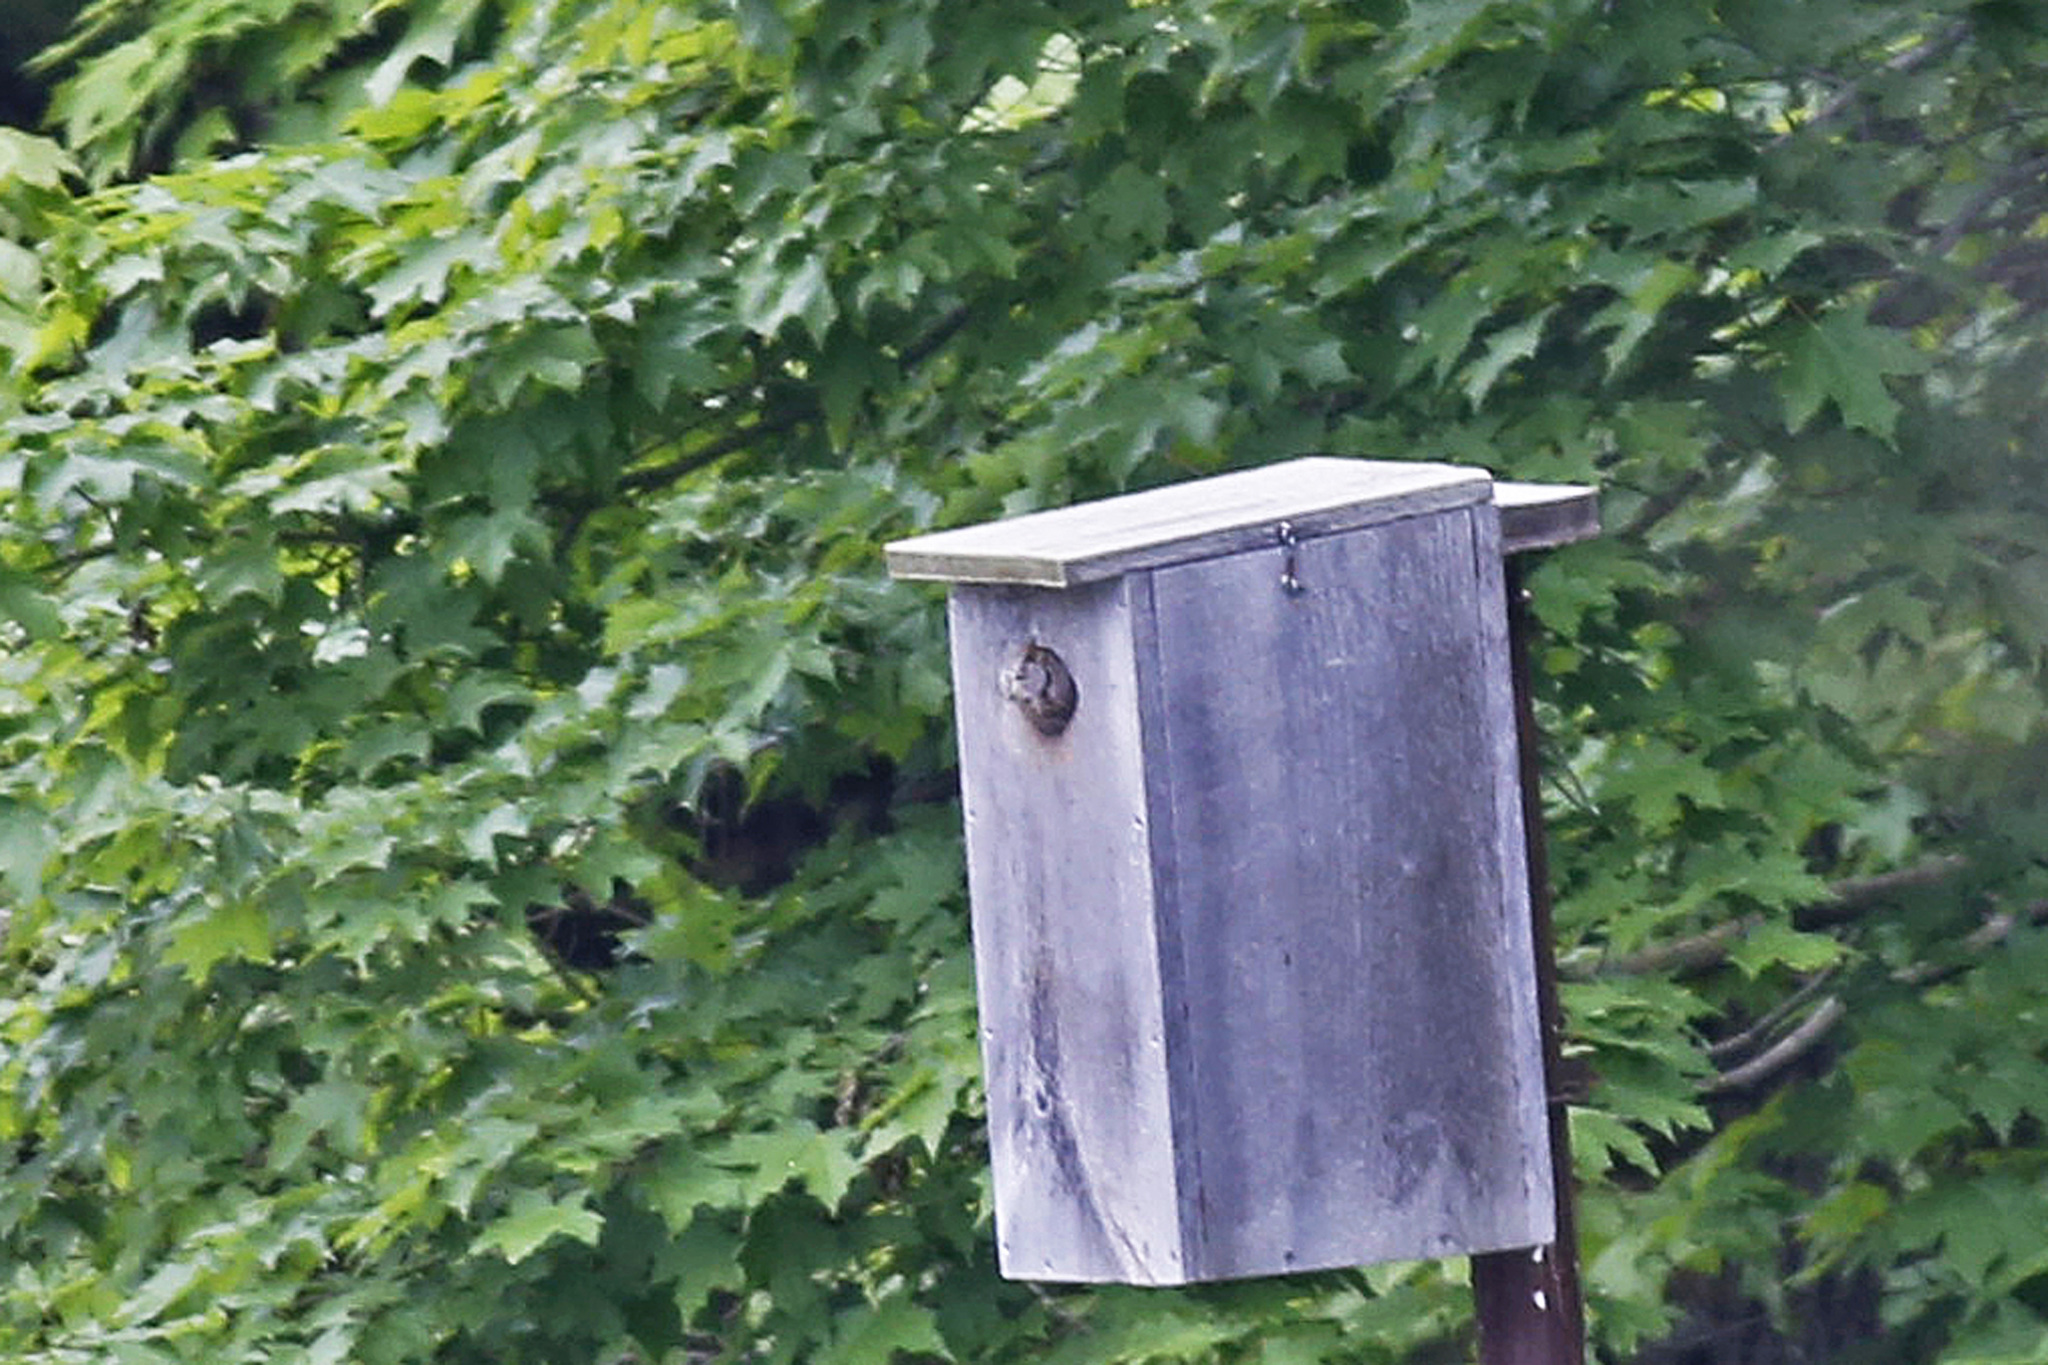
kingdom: Animalia
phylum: Chordata
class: Aves
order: Strigiformes
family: Strigidae
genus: Megascops
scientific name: Megascops asio
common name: Eastern screech-owl
